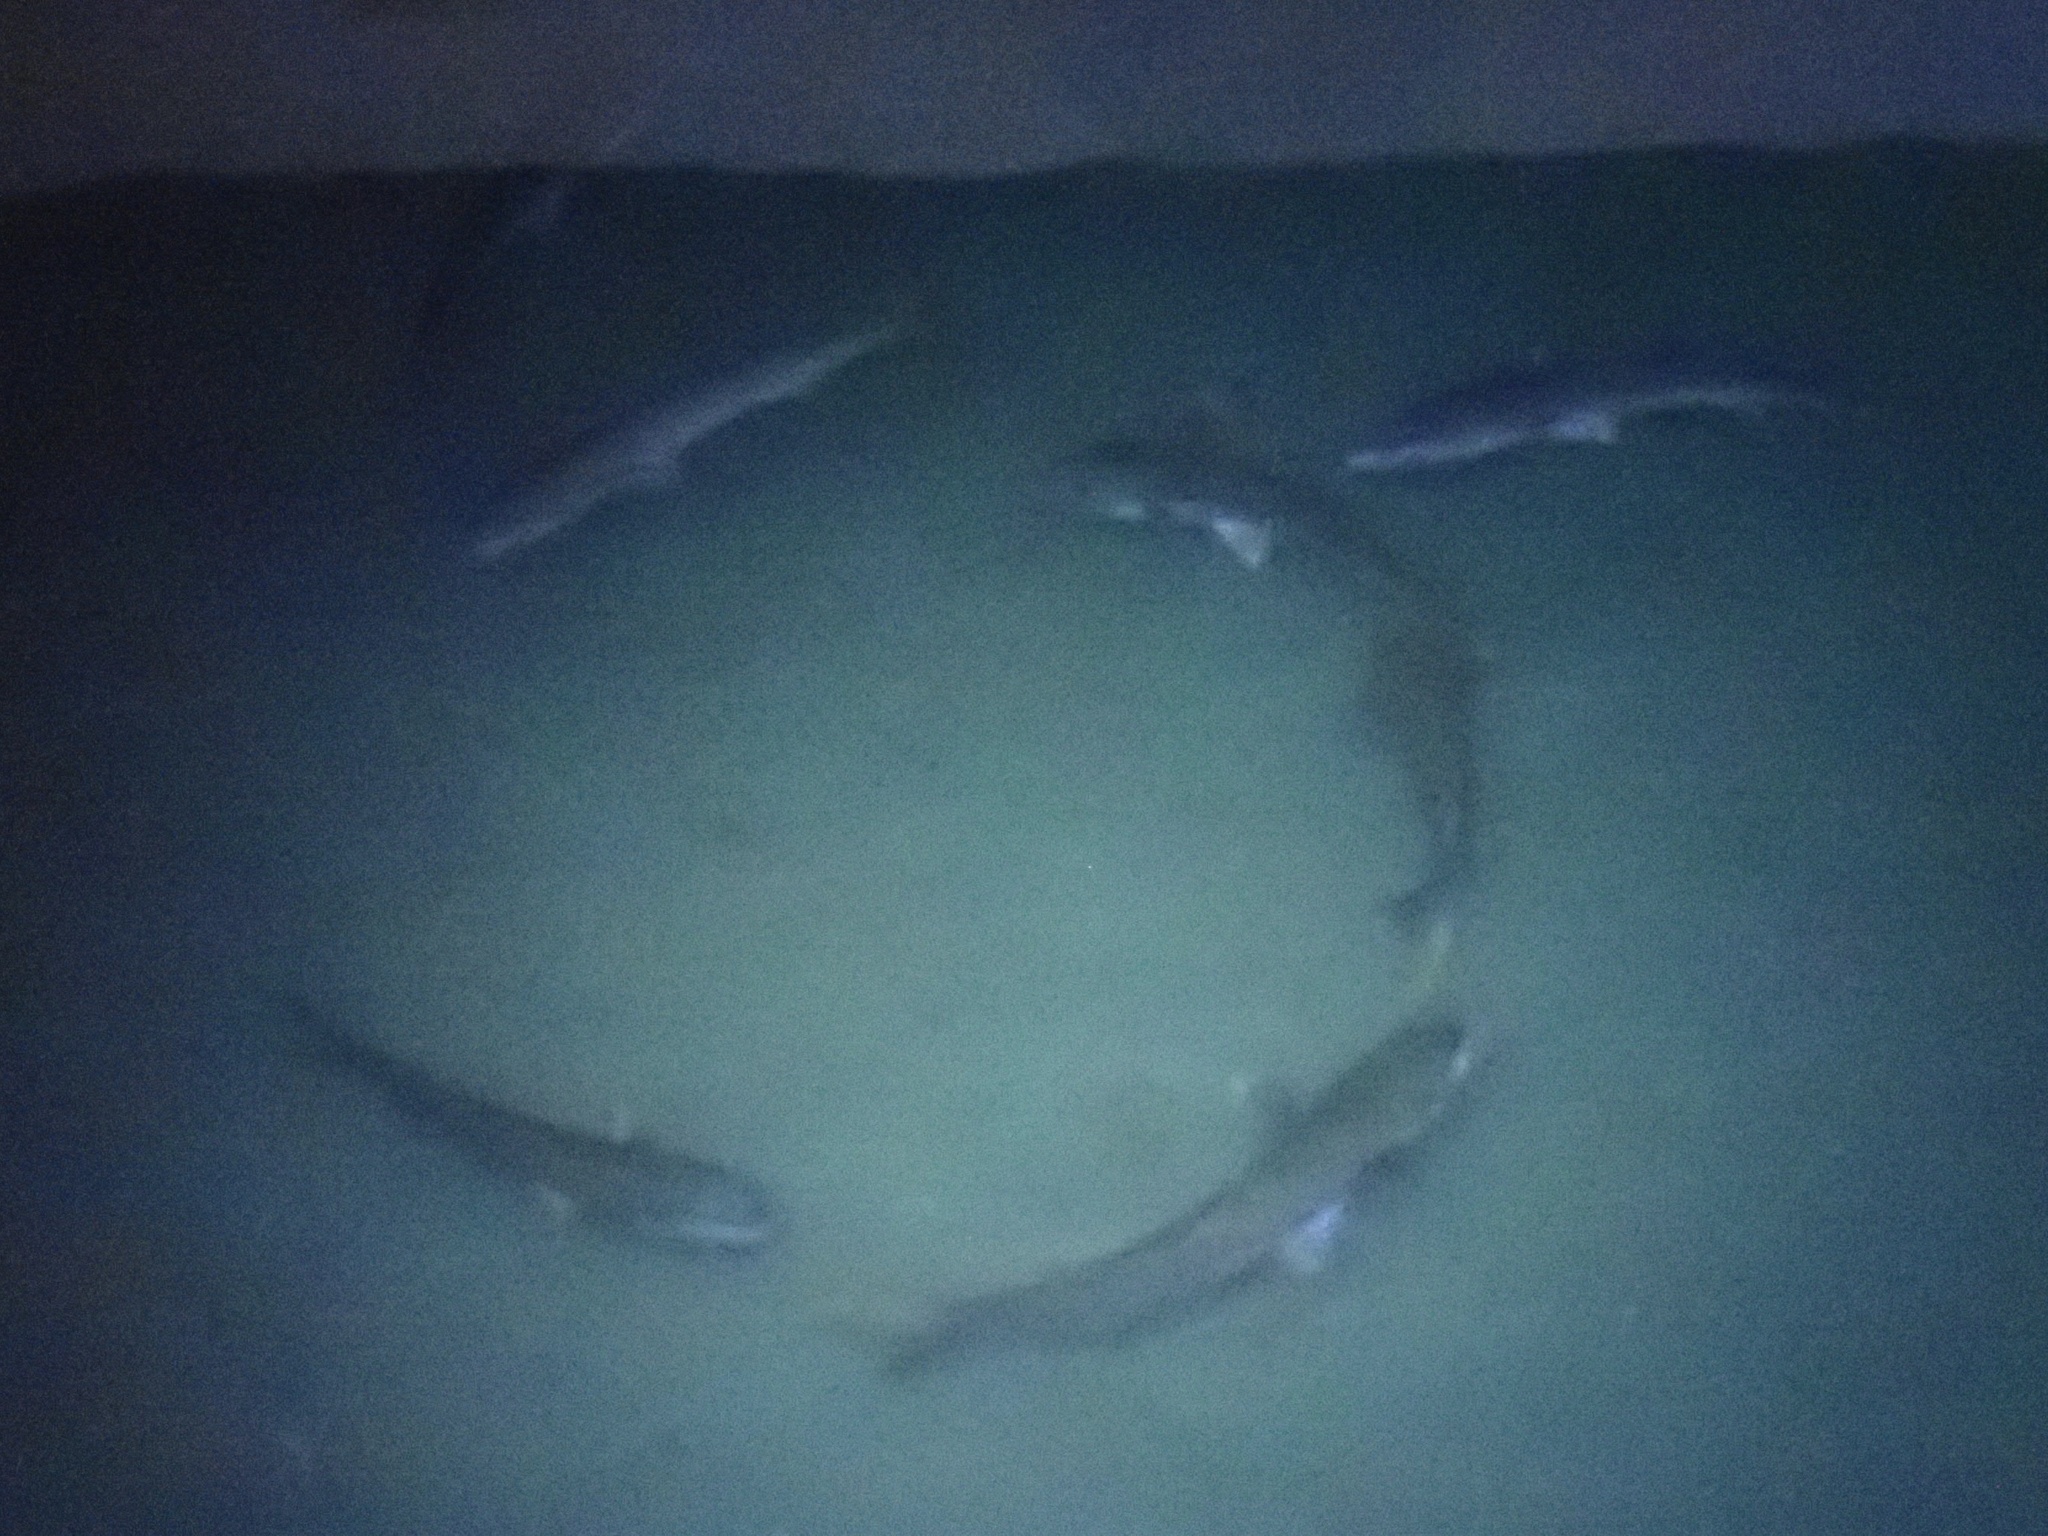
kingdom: Animalia
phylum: Chordata
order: Mugiliformes
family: Mugilidae
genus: Mugil
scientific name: Mugil cephalus
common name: Grey mullet
